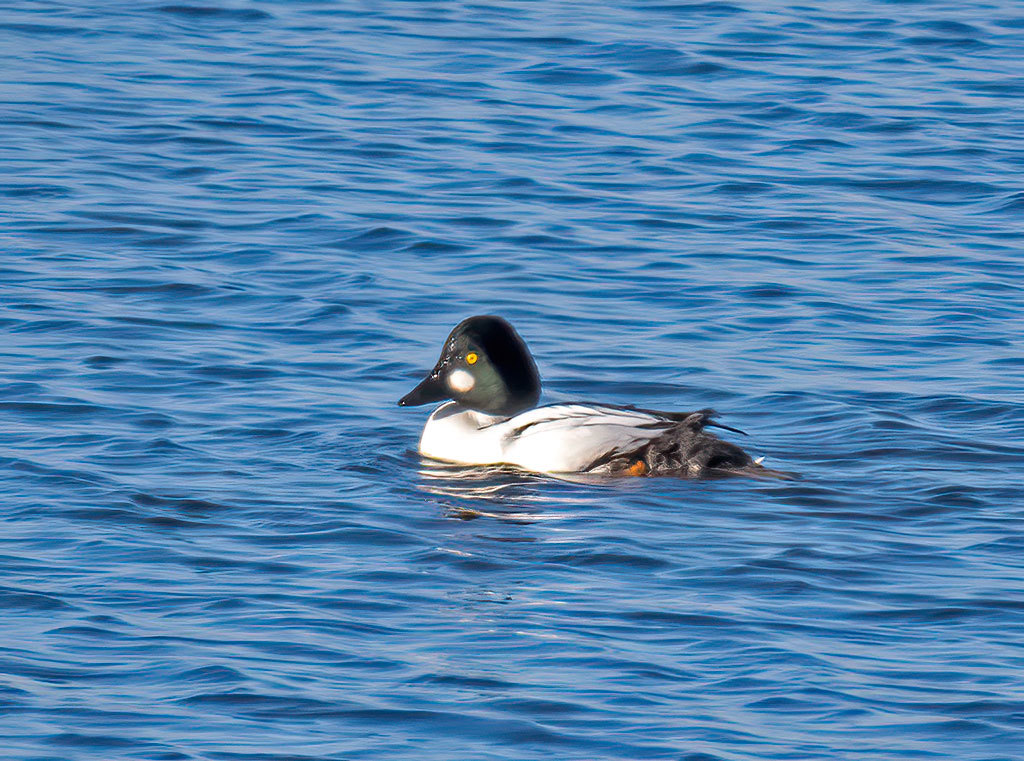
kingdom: Animalia
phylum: Chordata
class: Aves
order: Anseriformes
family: Anatidae
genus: Bucephala
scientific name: Bucephala clangula
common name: Common goldeneye
